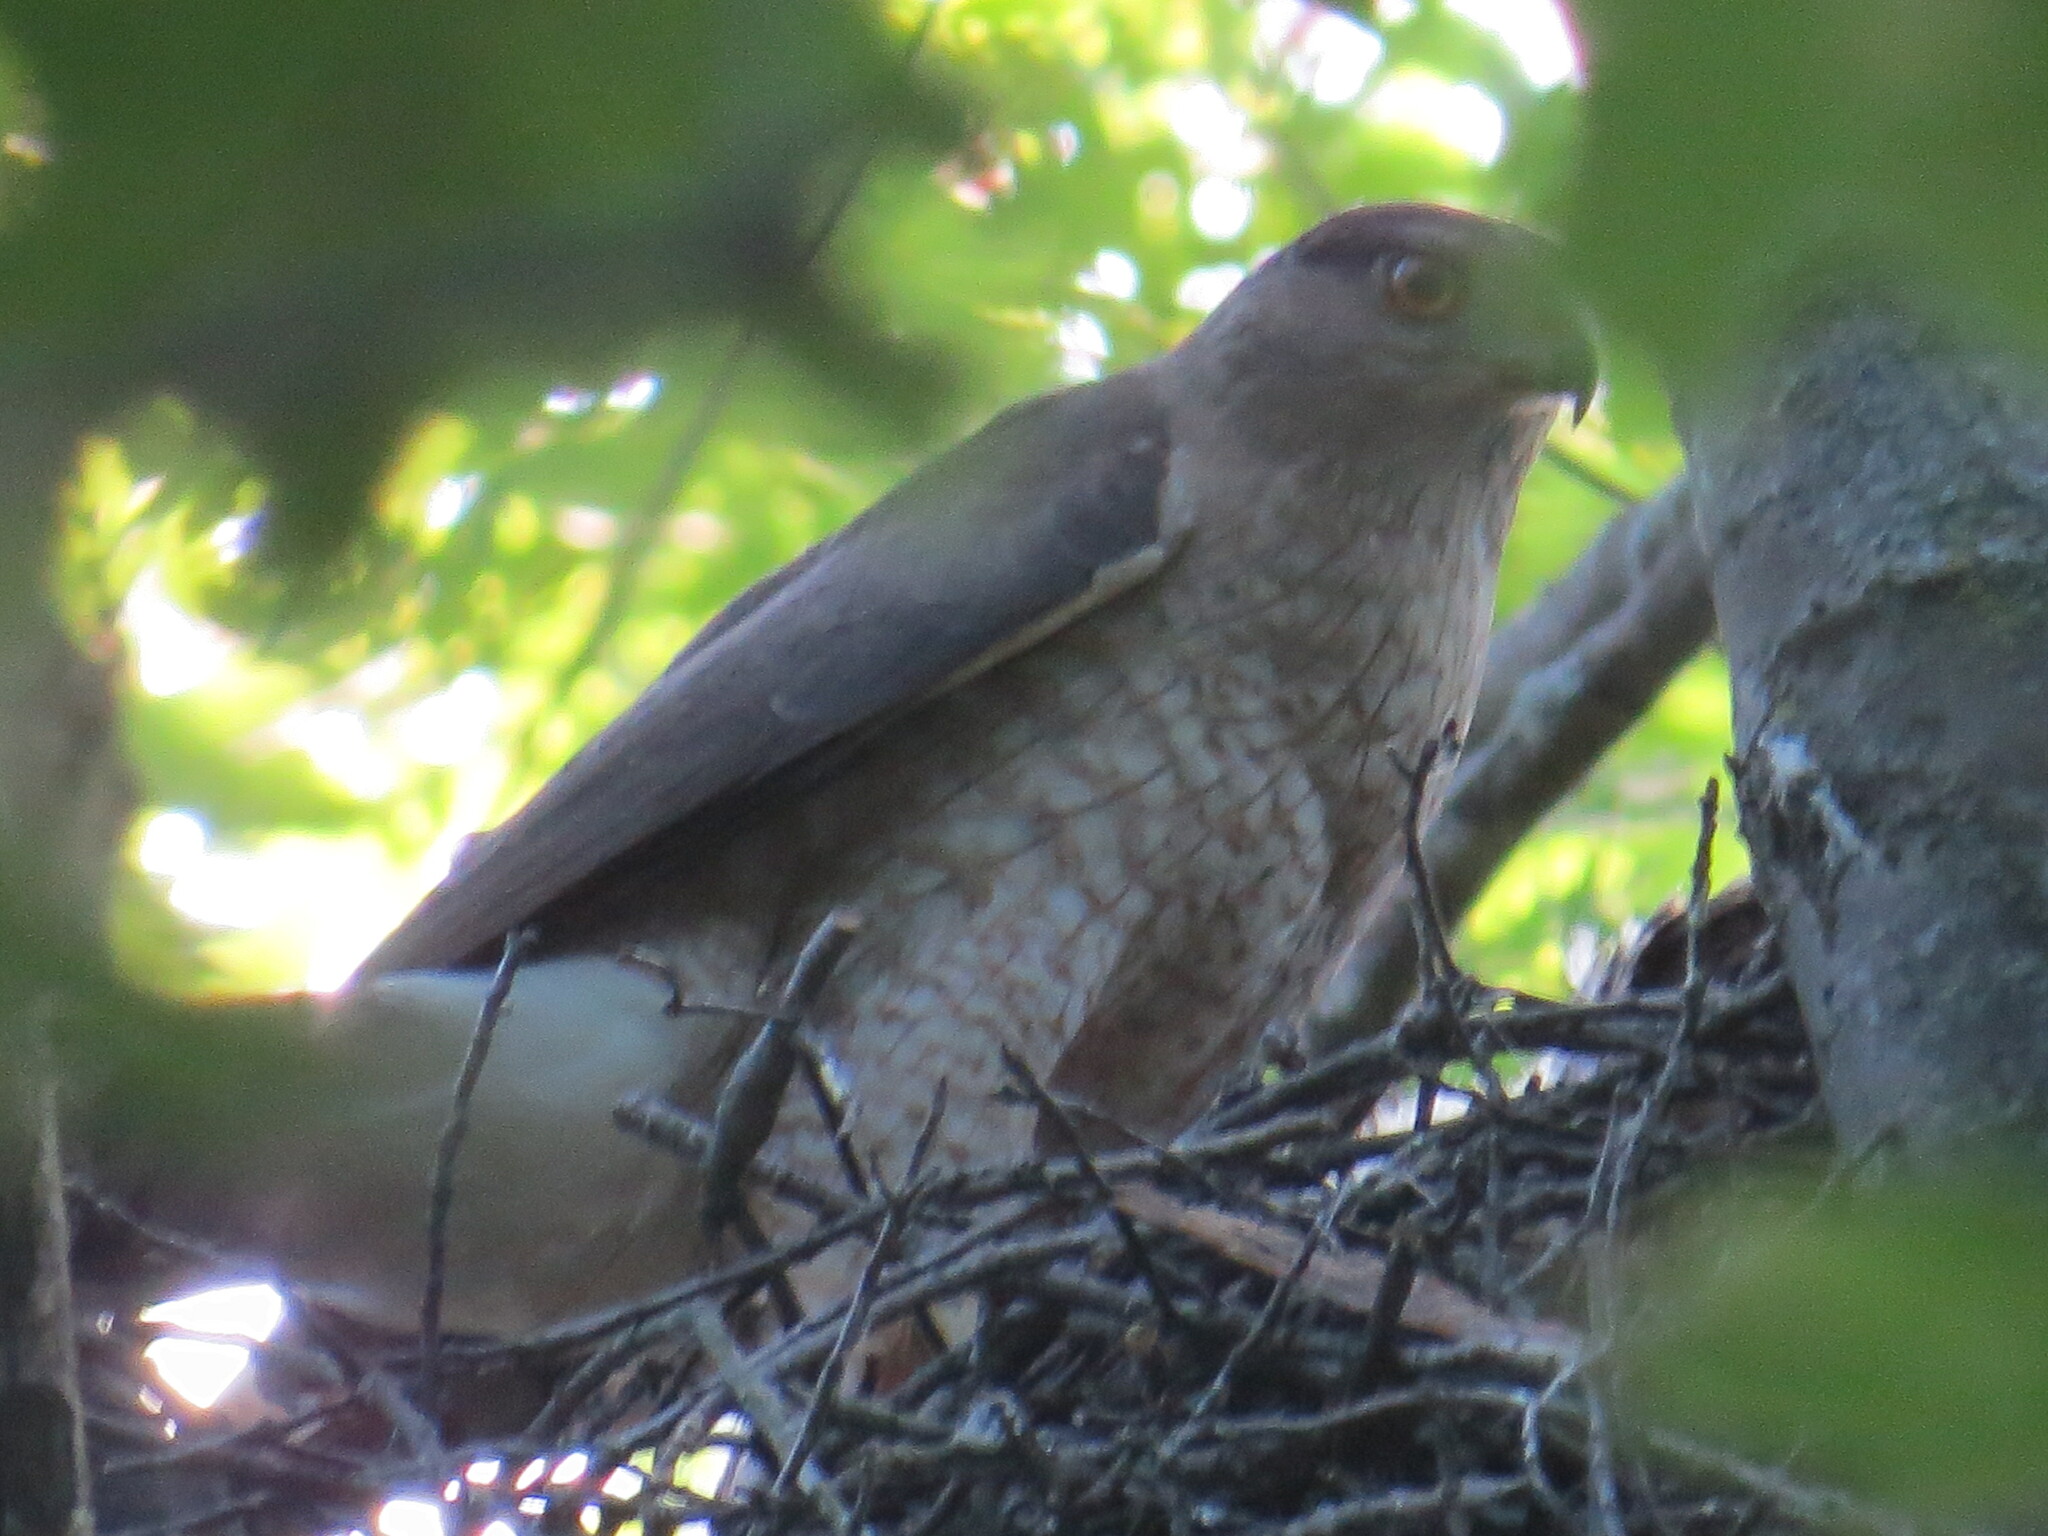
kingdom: Animalia
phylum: Chordata
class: Aves
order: Accipitriformes
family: Accipitridae
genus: Accipiter
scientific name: Accipiter cooperii
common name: Cooper's hawk
